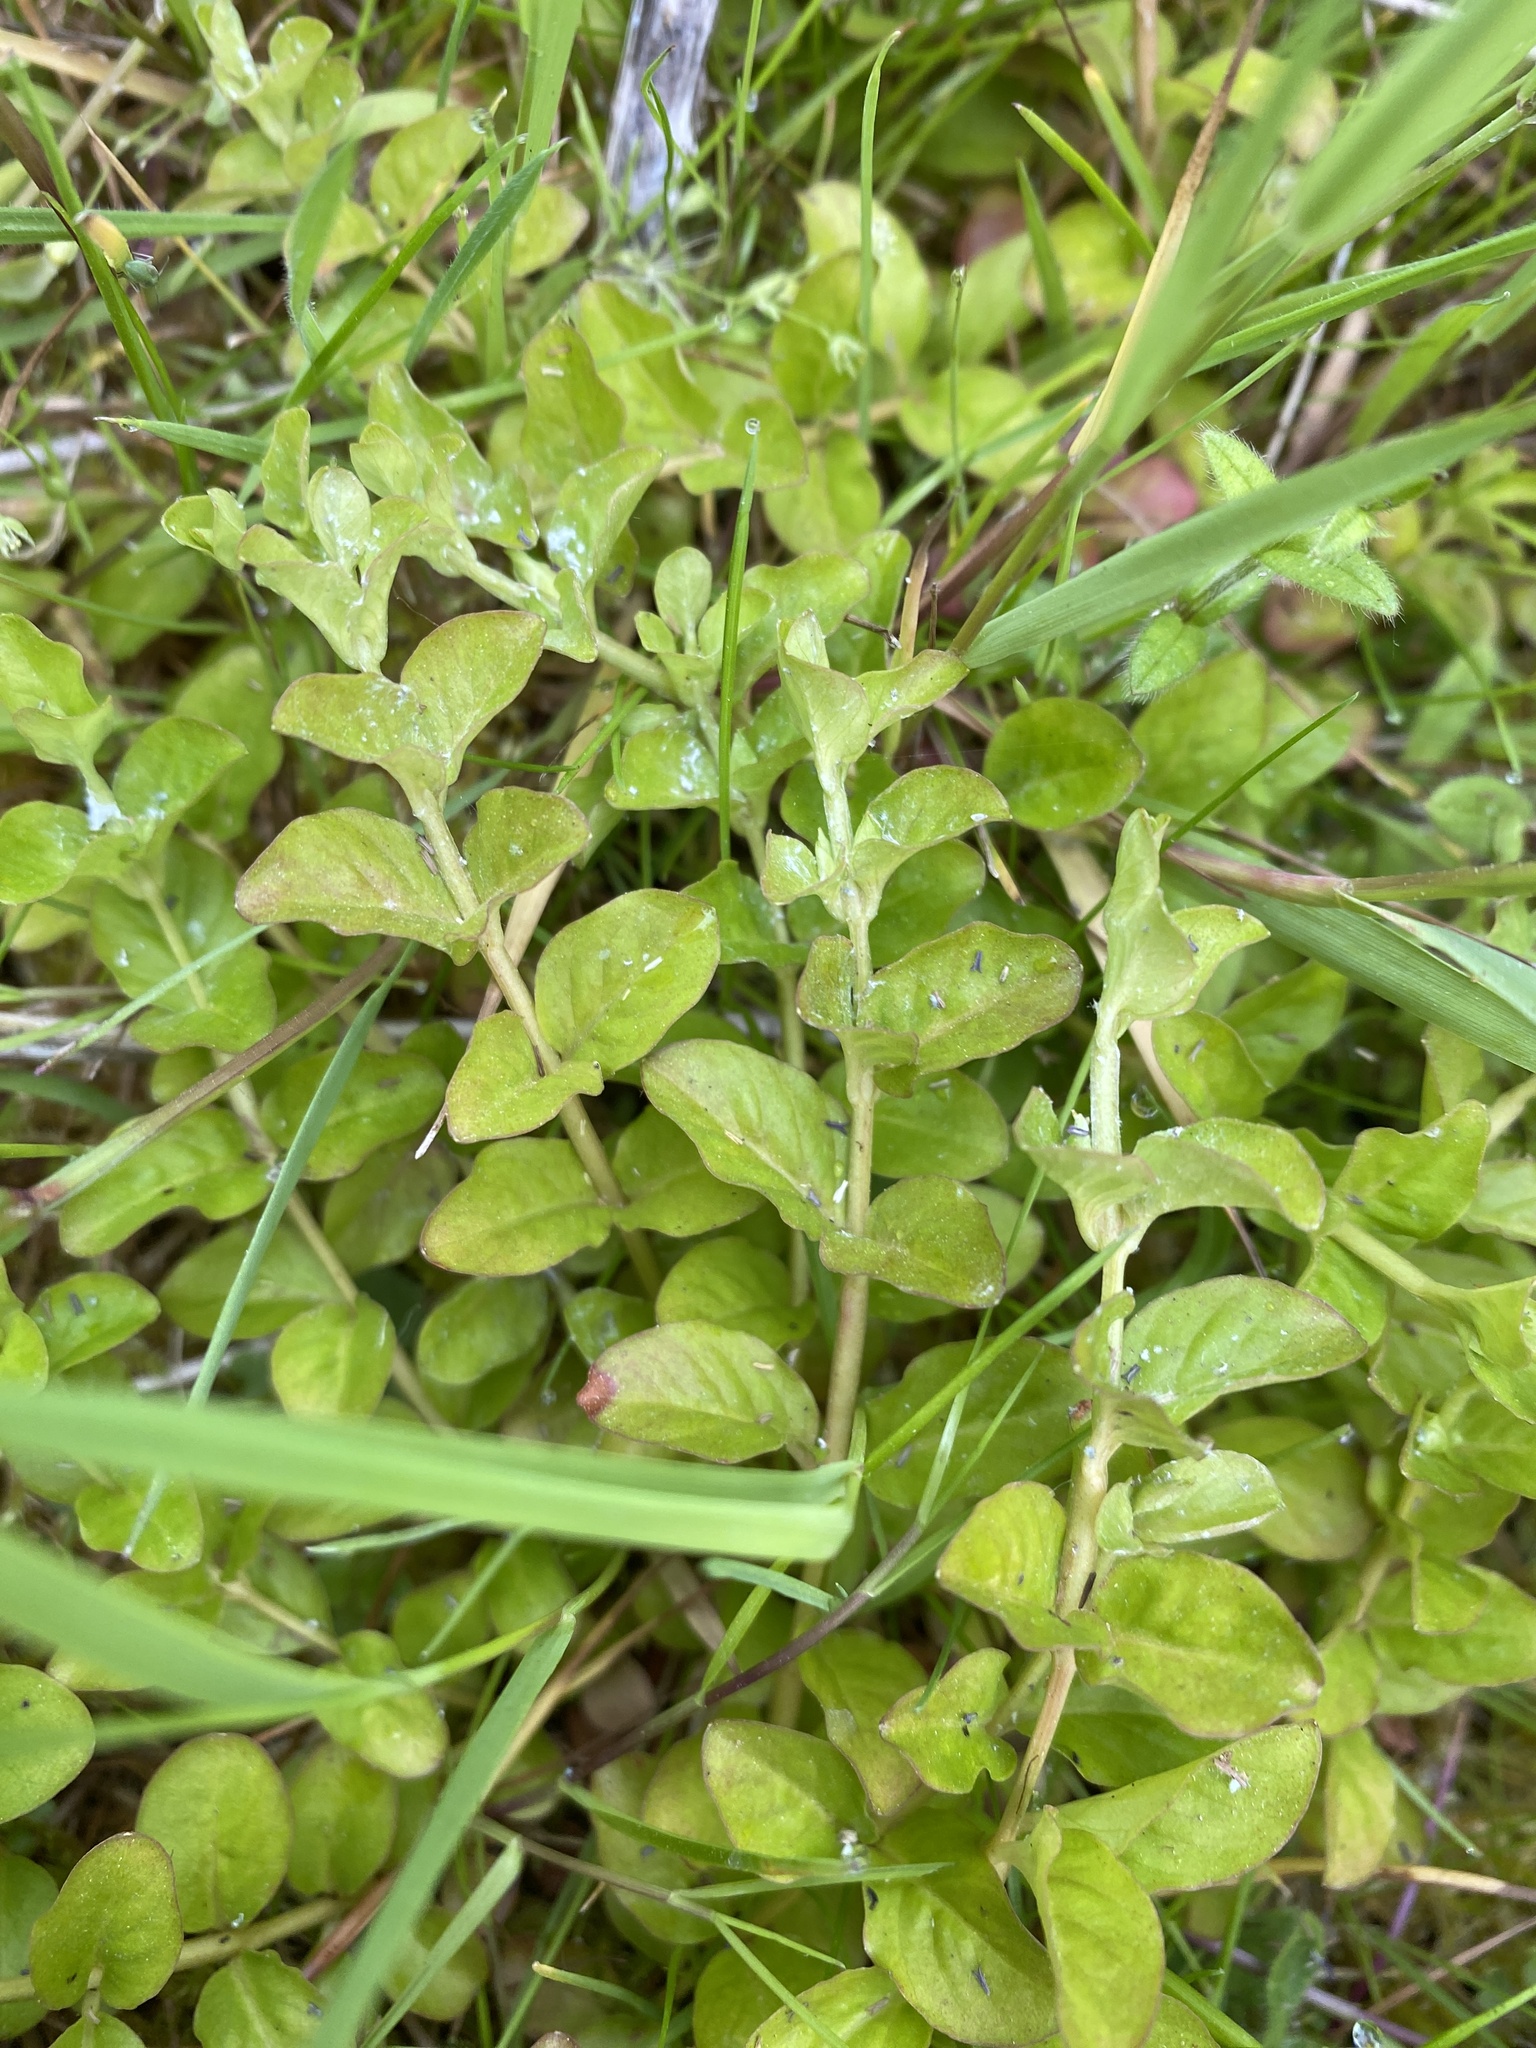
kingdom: Plantae
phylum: Tracheophyta
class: Magnoliopsida
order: Ericales
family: Primulaceae
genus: Lysimachia
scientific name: Lysimachia nummularia
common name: Moneywort
